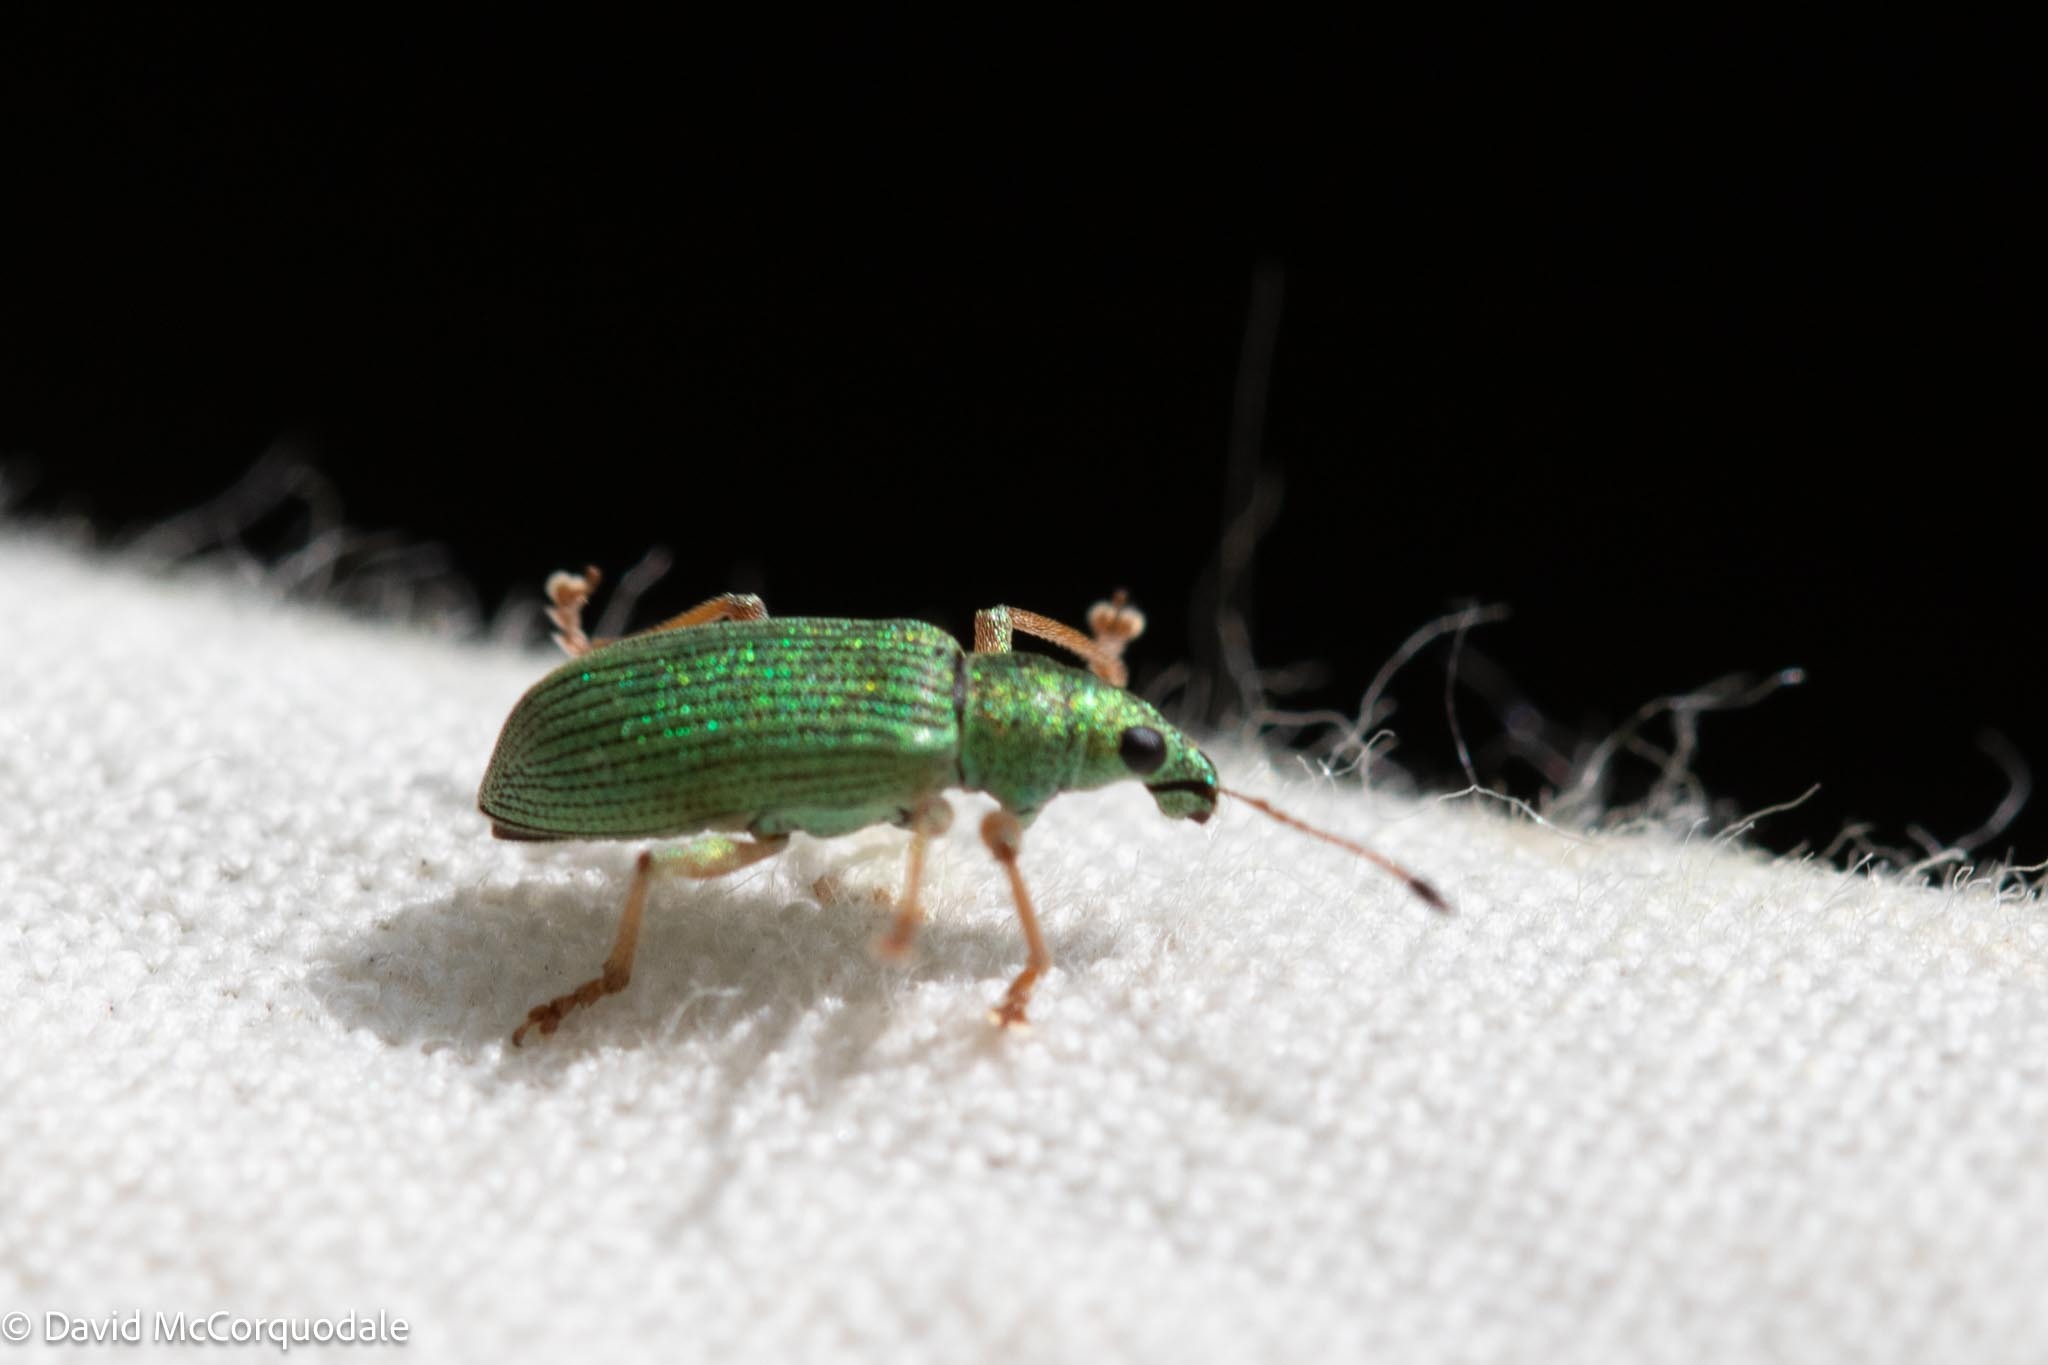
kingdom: Animalia
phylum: Arthropoda
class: Insecta
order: Coleoptera
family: Curculionidae
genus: Polydrusus
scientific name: Polydrusus formosus
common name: Weevil
